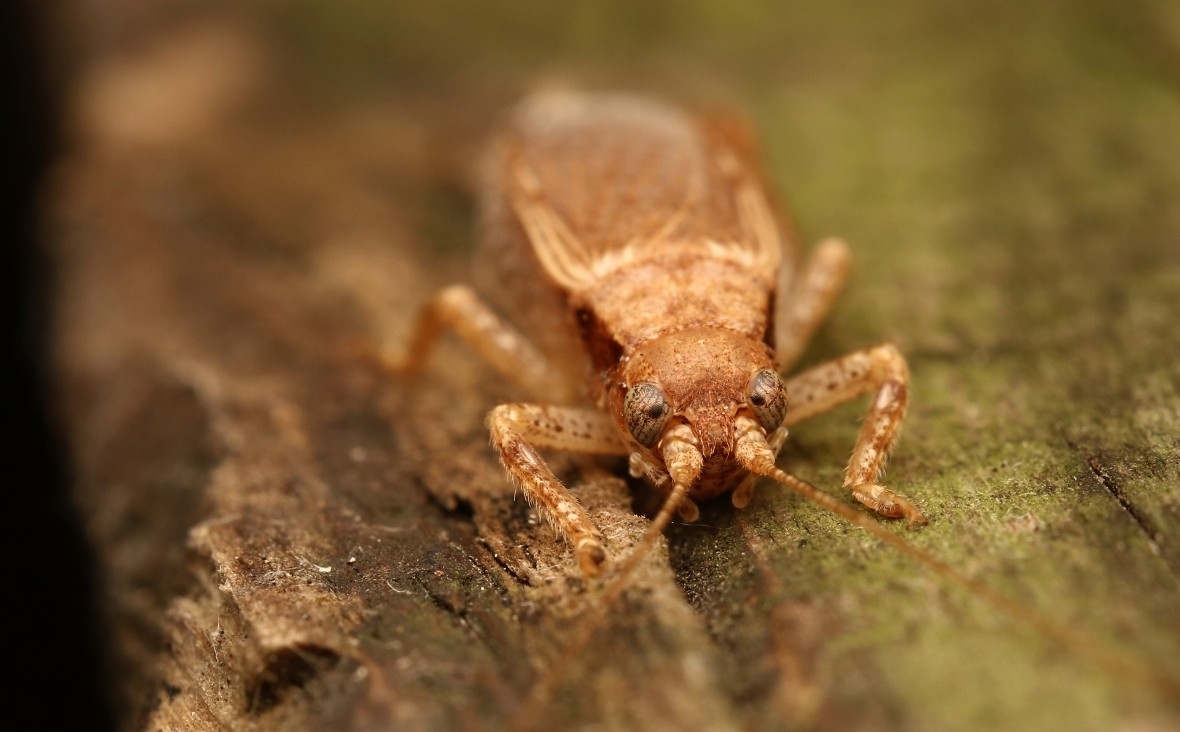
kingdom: Animalia
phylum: Arthropoda
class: Insecta
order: Orthoptera
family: Gryllidae
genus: Hapithus
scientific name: Hapithus saltator
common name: Jumping bush cricket
